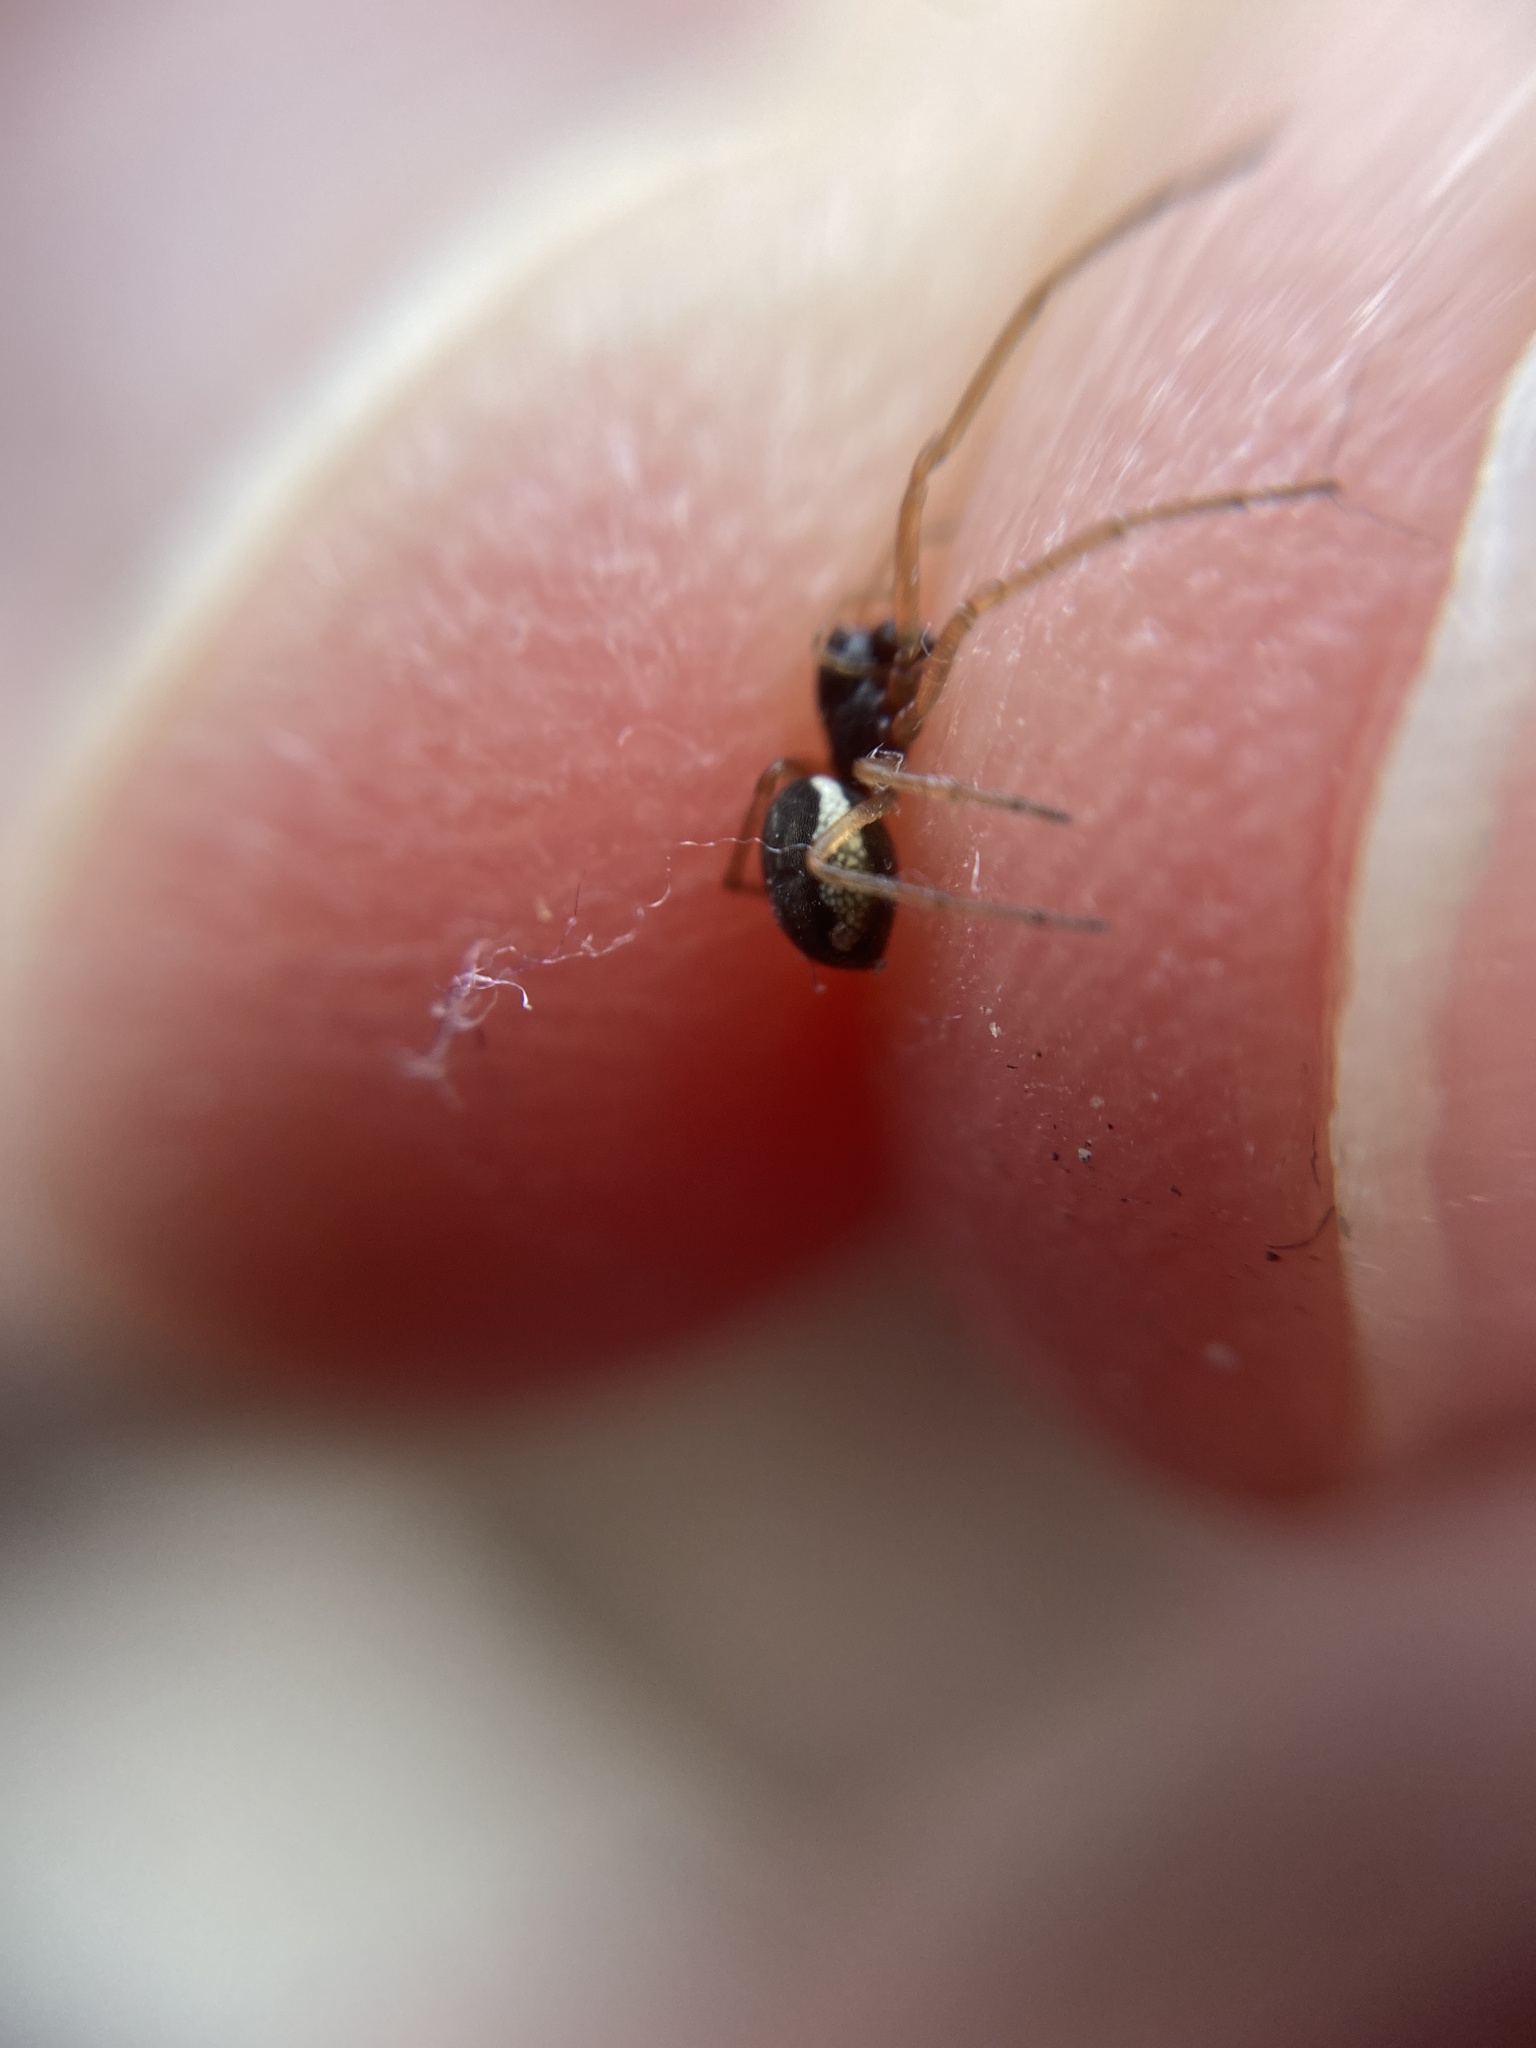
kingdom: Animalia
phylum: Arthropoda
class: Arachnida
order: Araneae
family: Tetragnathidae
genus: Pachygnatha
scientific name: Pachygnatha degeeri
